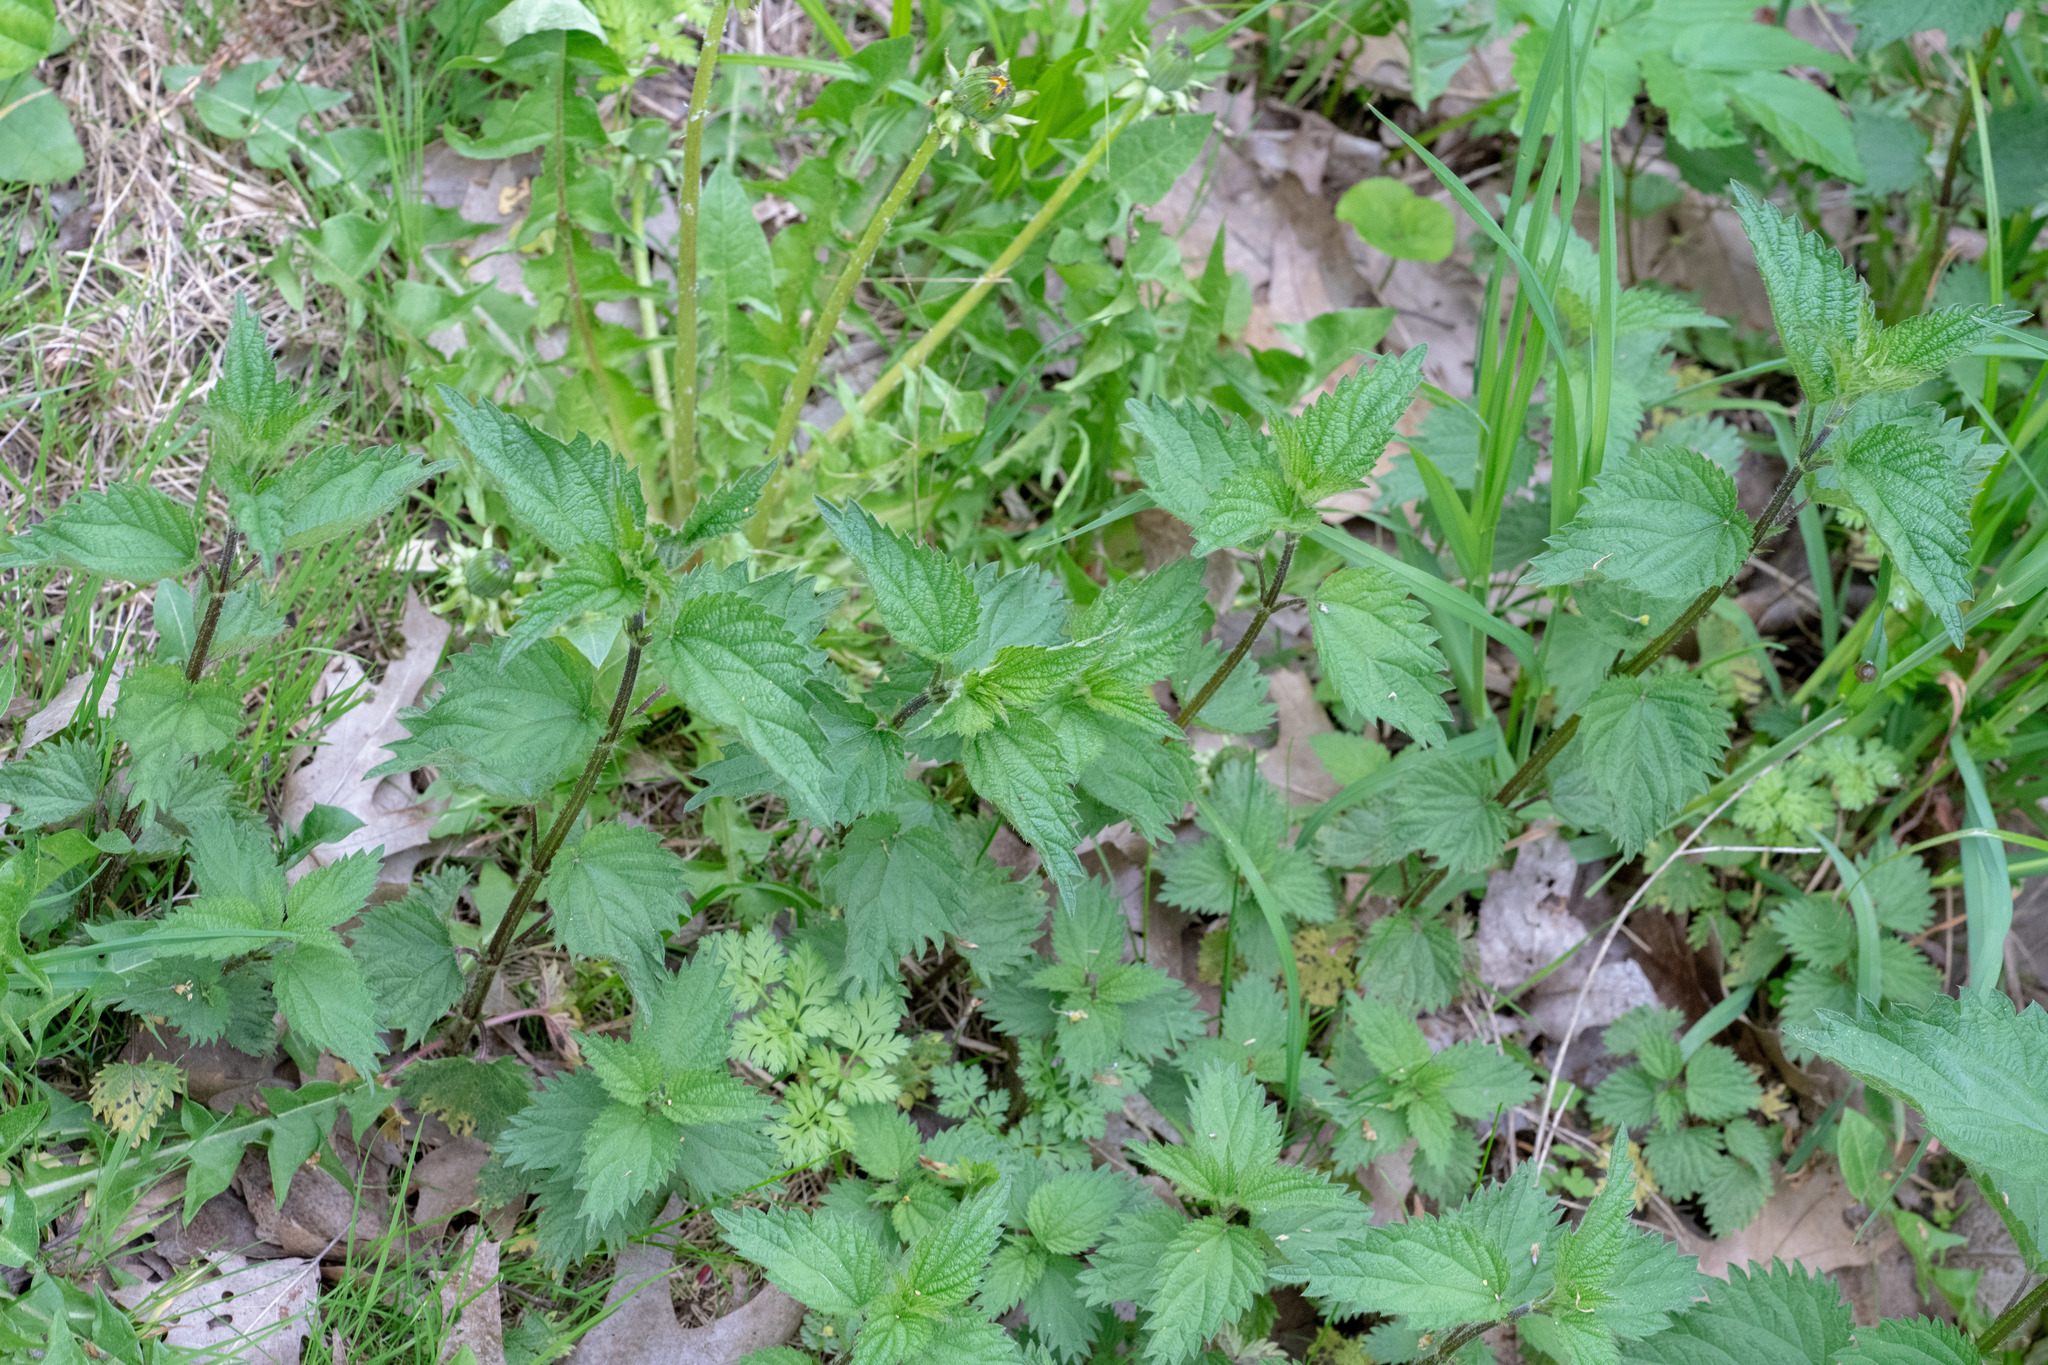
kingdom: Plantae
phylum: Tracheophyta
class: Magnoliopsida
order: Rosales
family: Urticaceae
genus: Urtica
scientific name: Urtica dioica
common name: Common nettle
